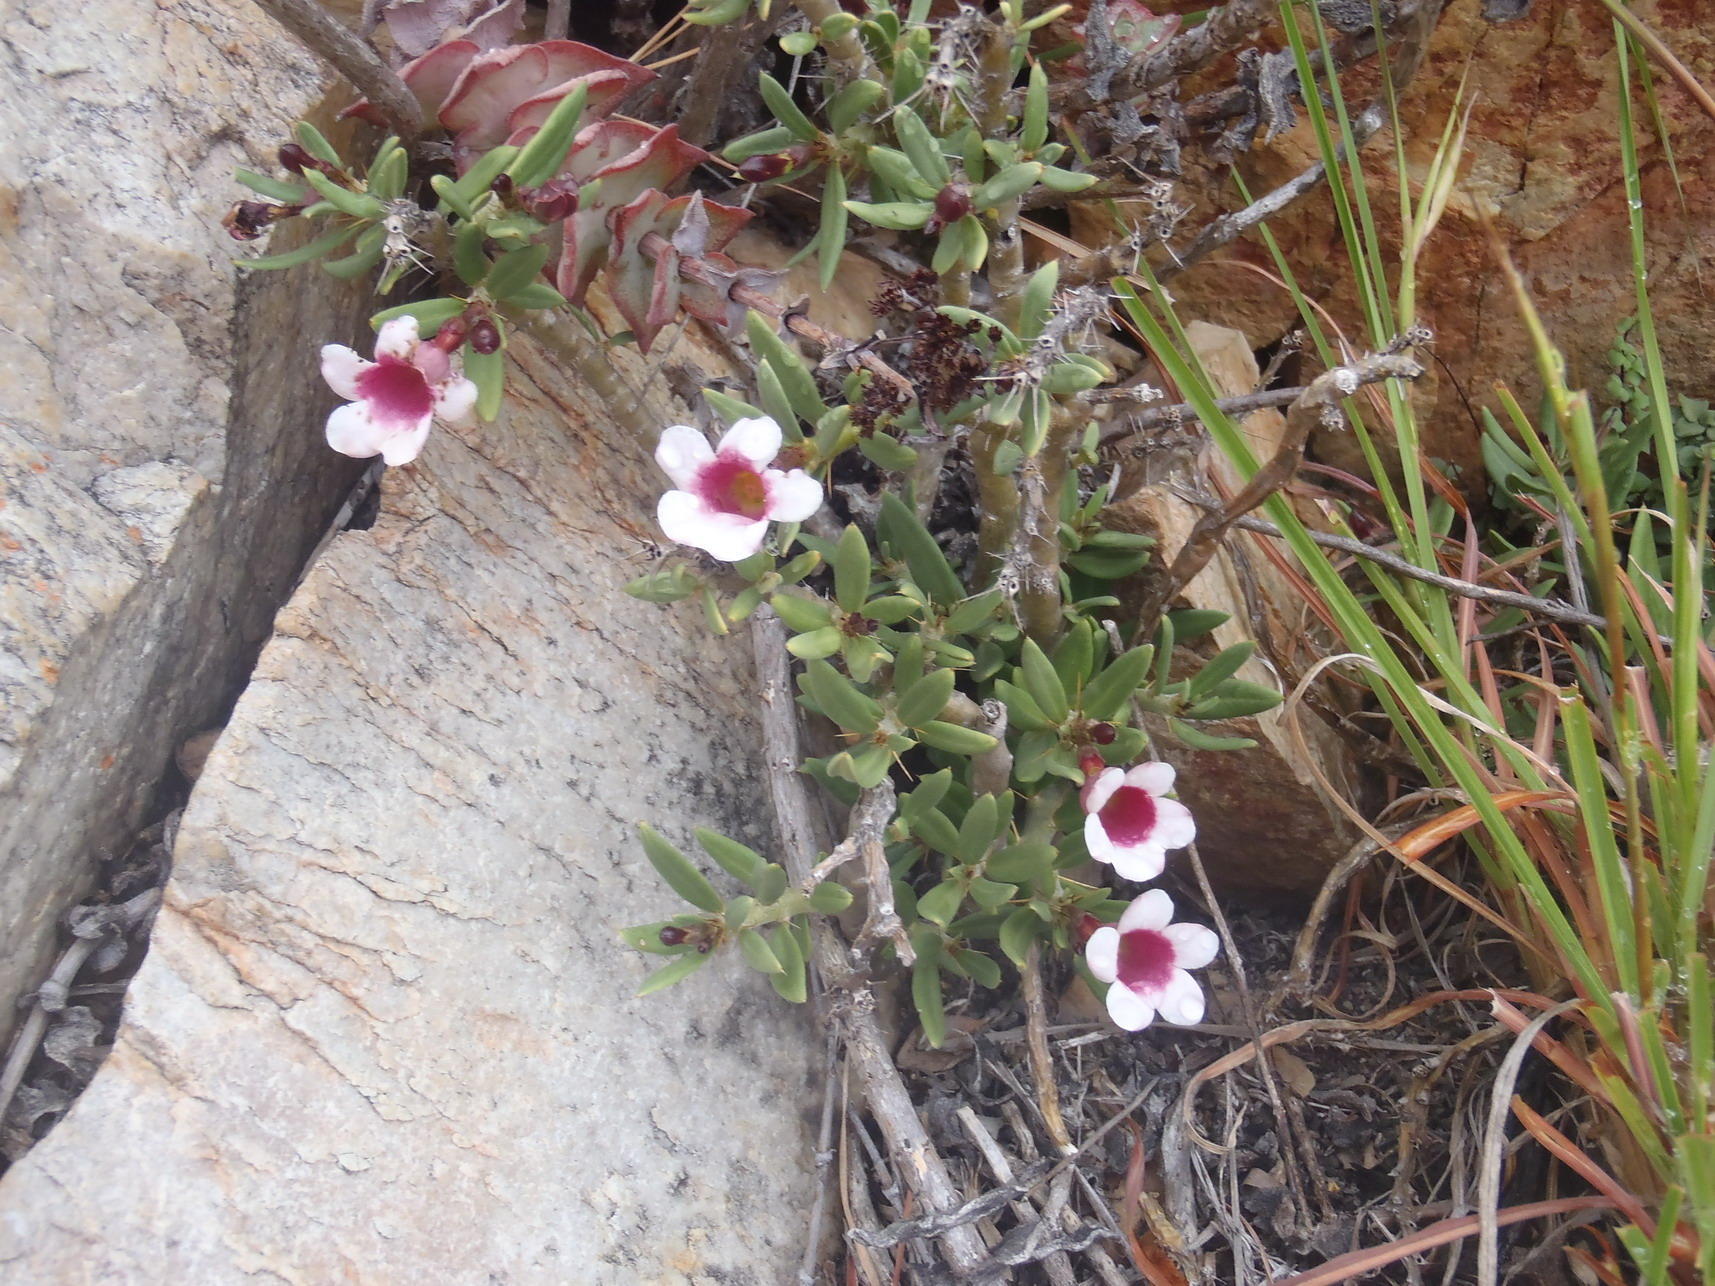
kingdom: Plantae
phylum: Tracheophyta
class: Magnoliopsida
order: Gentianales
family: Apocynaceae
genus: Pachypodium
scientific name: Pachypodium bispinosum
